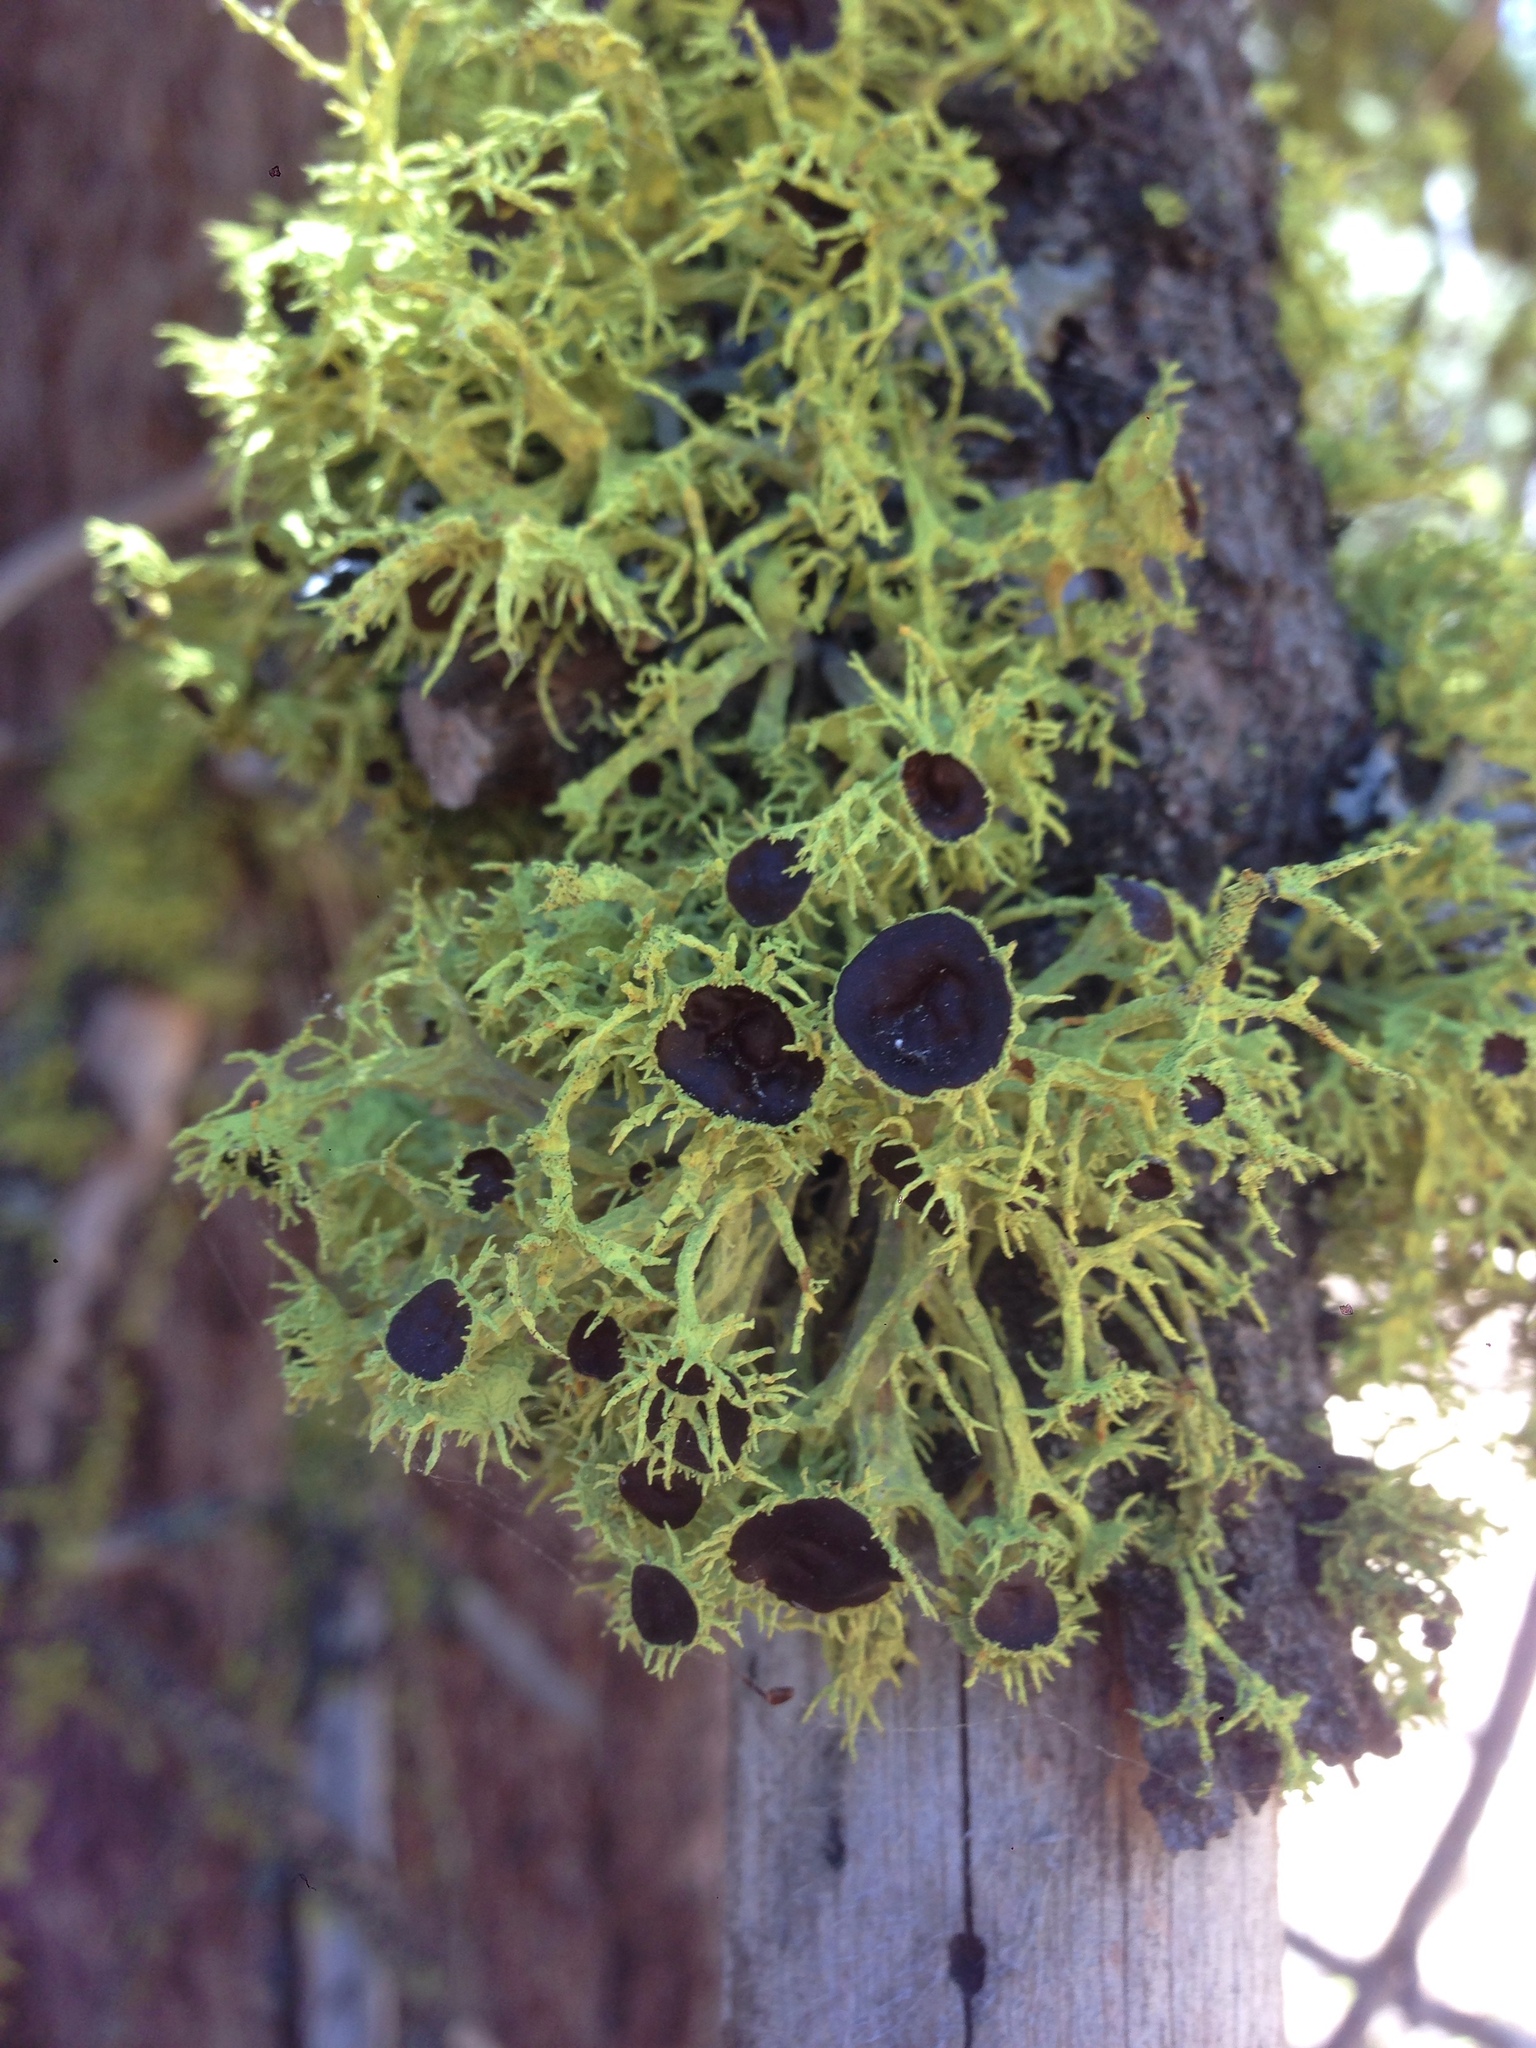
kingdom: Fungi
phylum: Ascomycota
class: Lecanoromycetes
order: Lecanorales
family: Parmeliaceae
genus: Letharia
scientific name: Letharia columbiana
